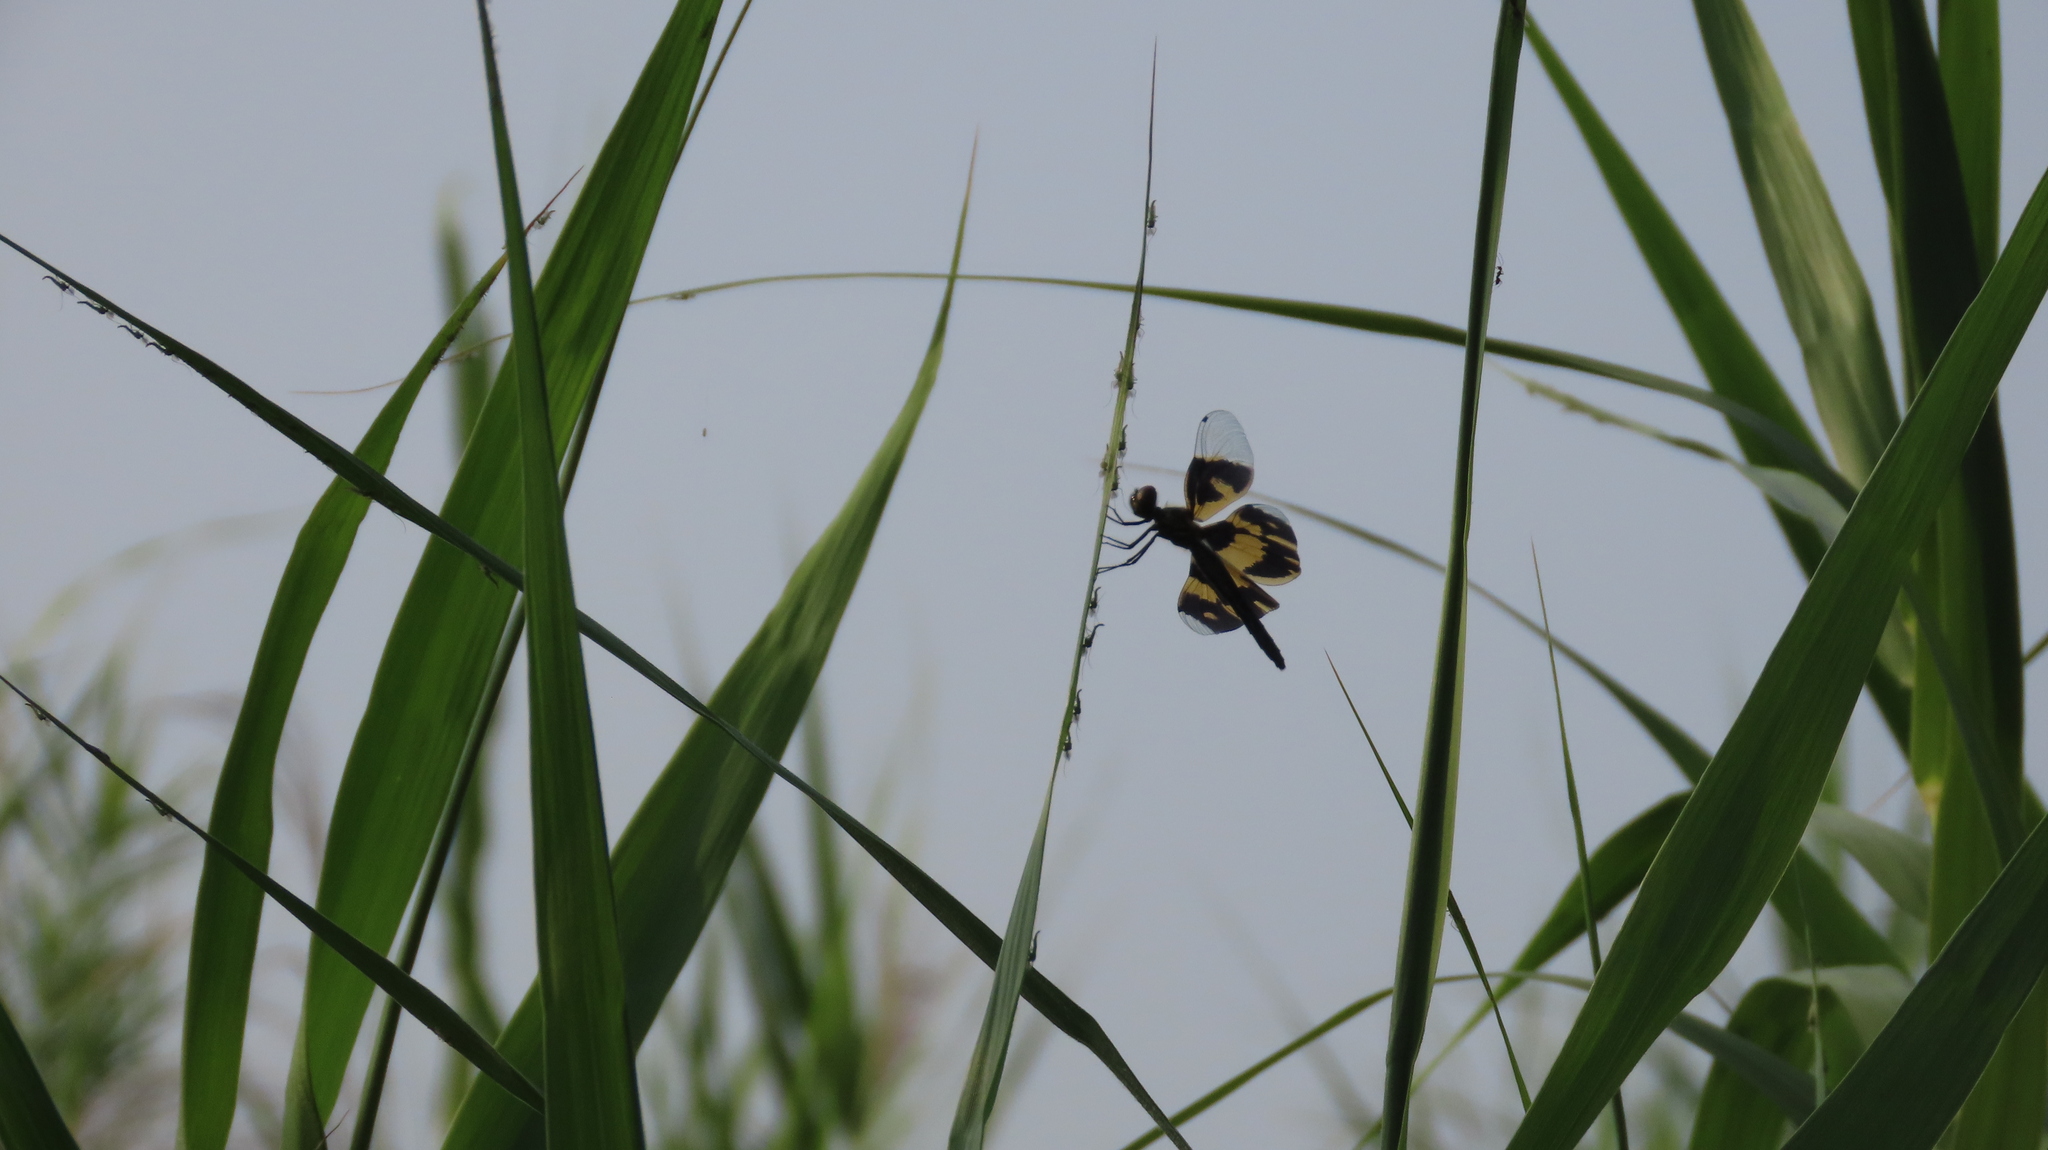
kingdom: Animalia
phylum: Arthropoda
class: Insecta
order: Odonata
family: Libellulidae
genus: Rhyothemis
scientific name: Rhyothemis variegata
